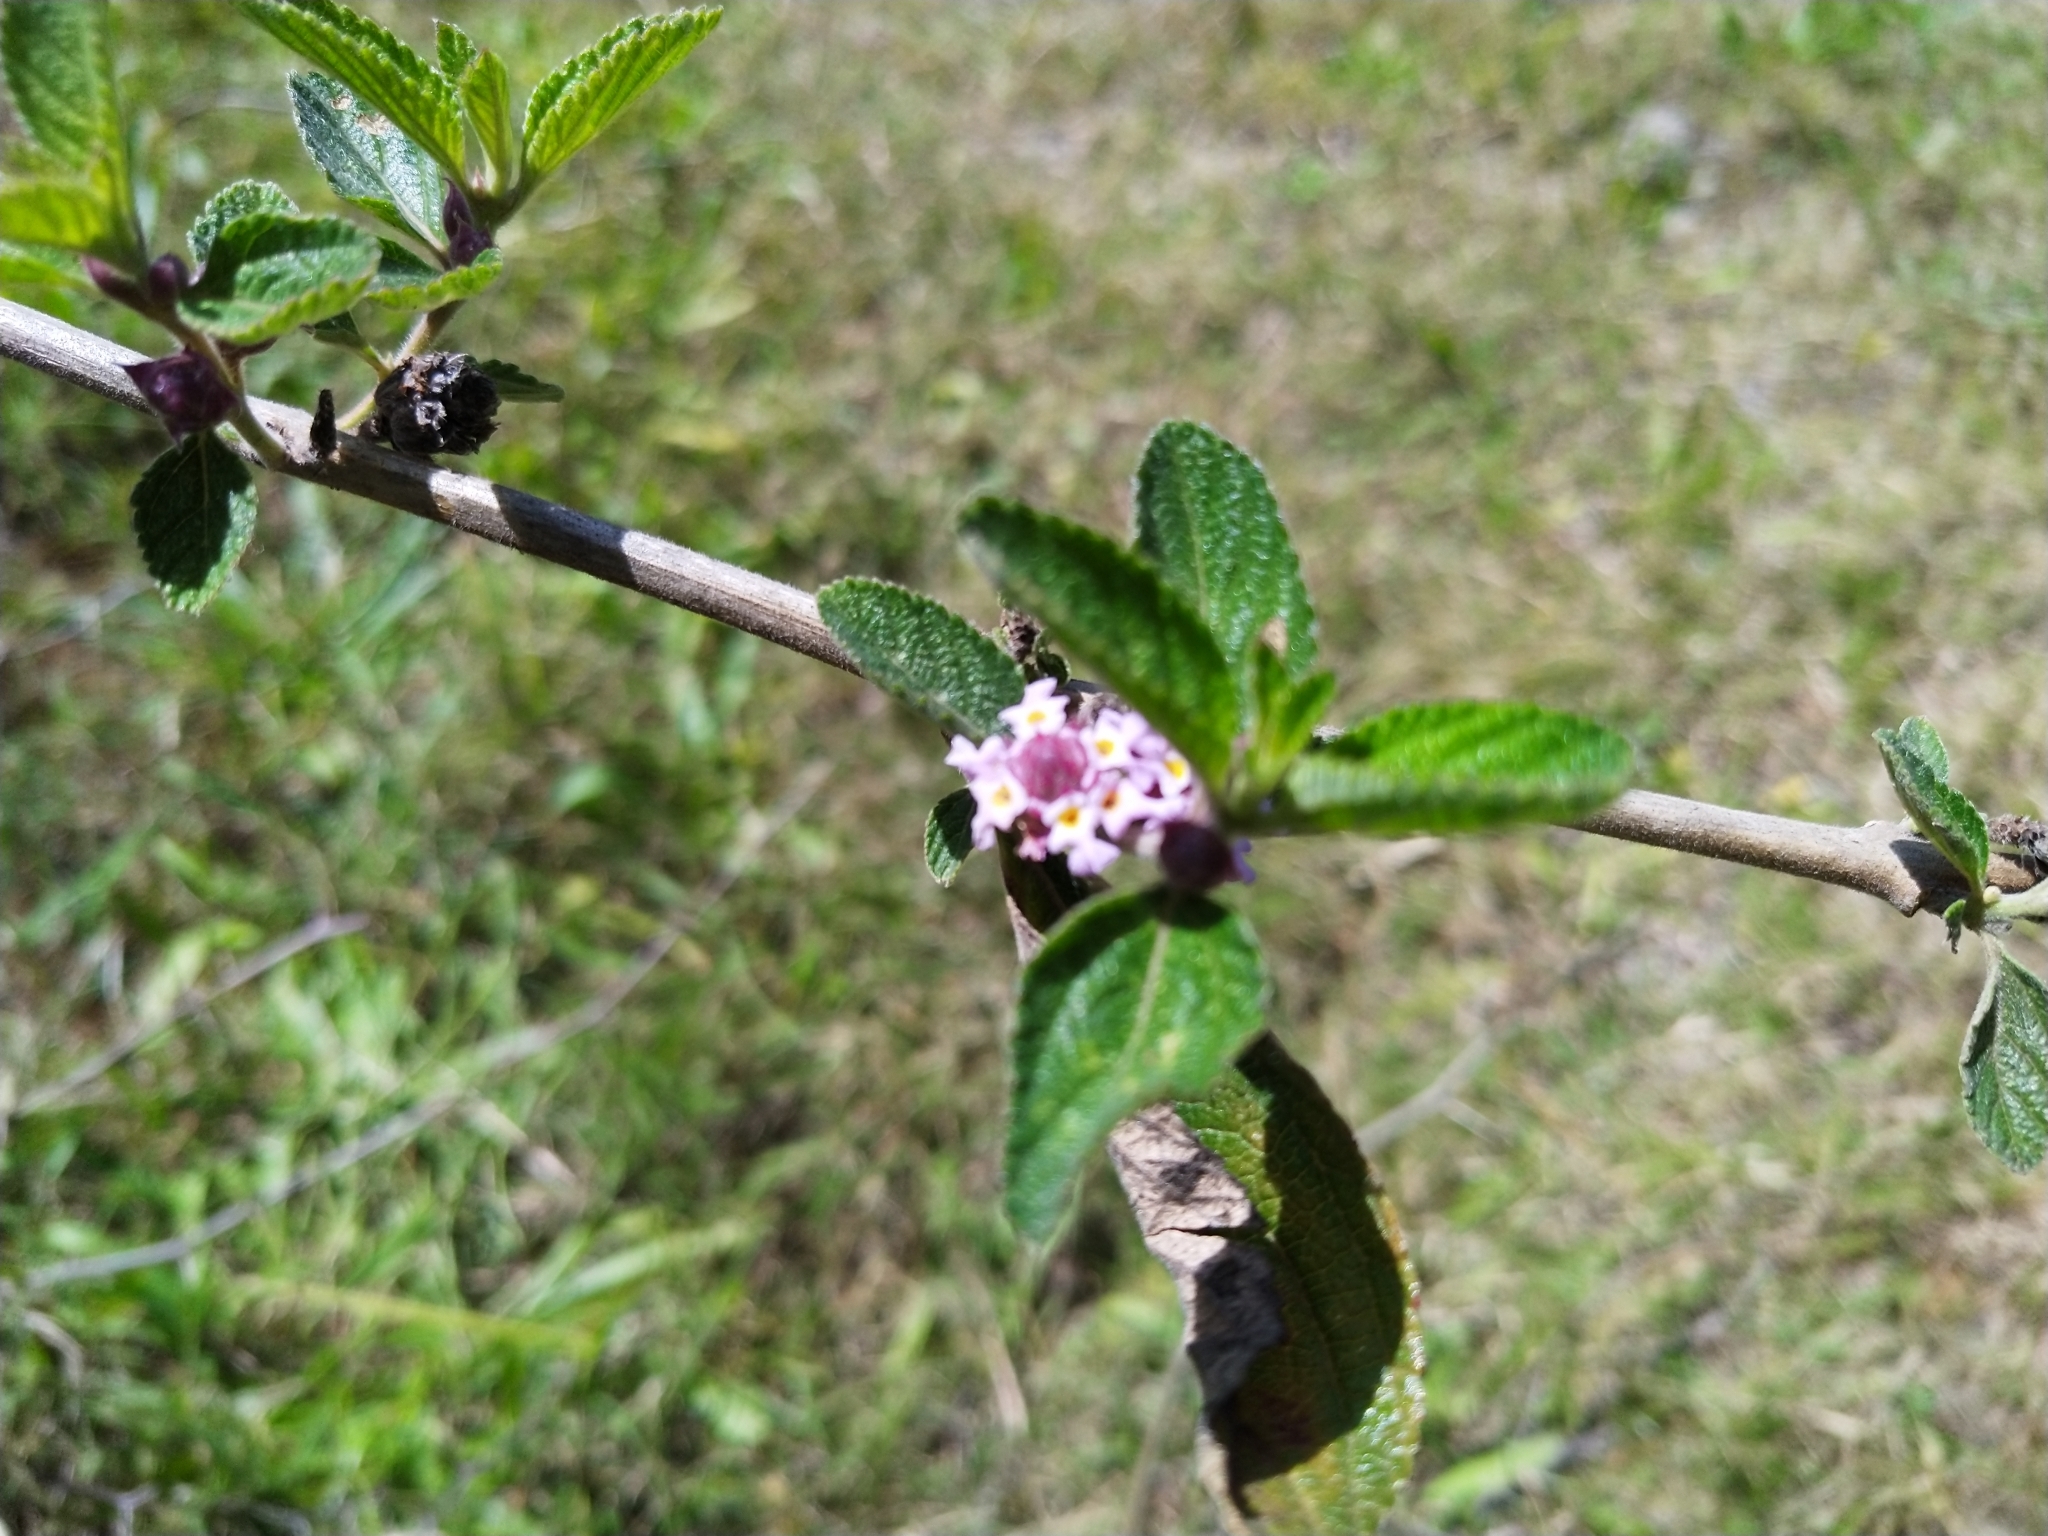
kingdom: Plantae
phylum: Tracheophyta
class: Magnoliopsida
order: Lamiales
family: Verbenaceae
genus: Lippia
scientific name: Lippia alba
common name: Bushy matgrass
